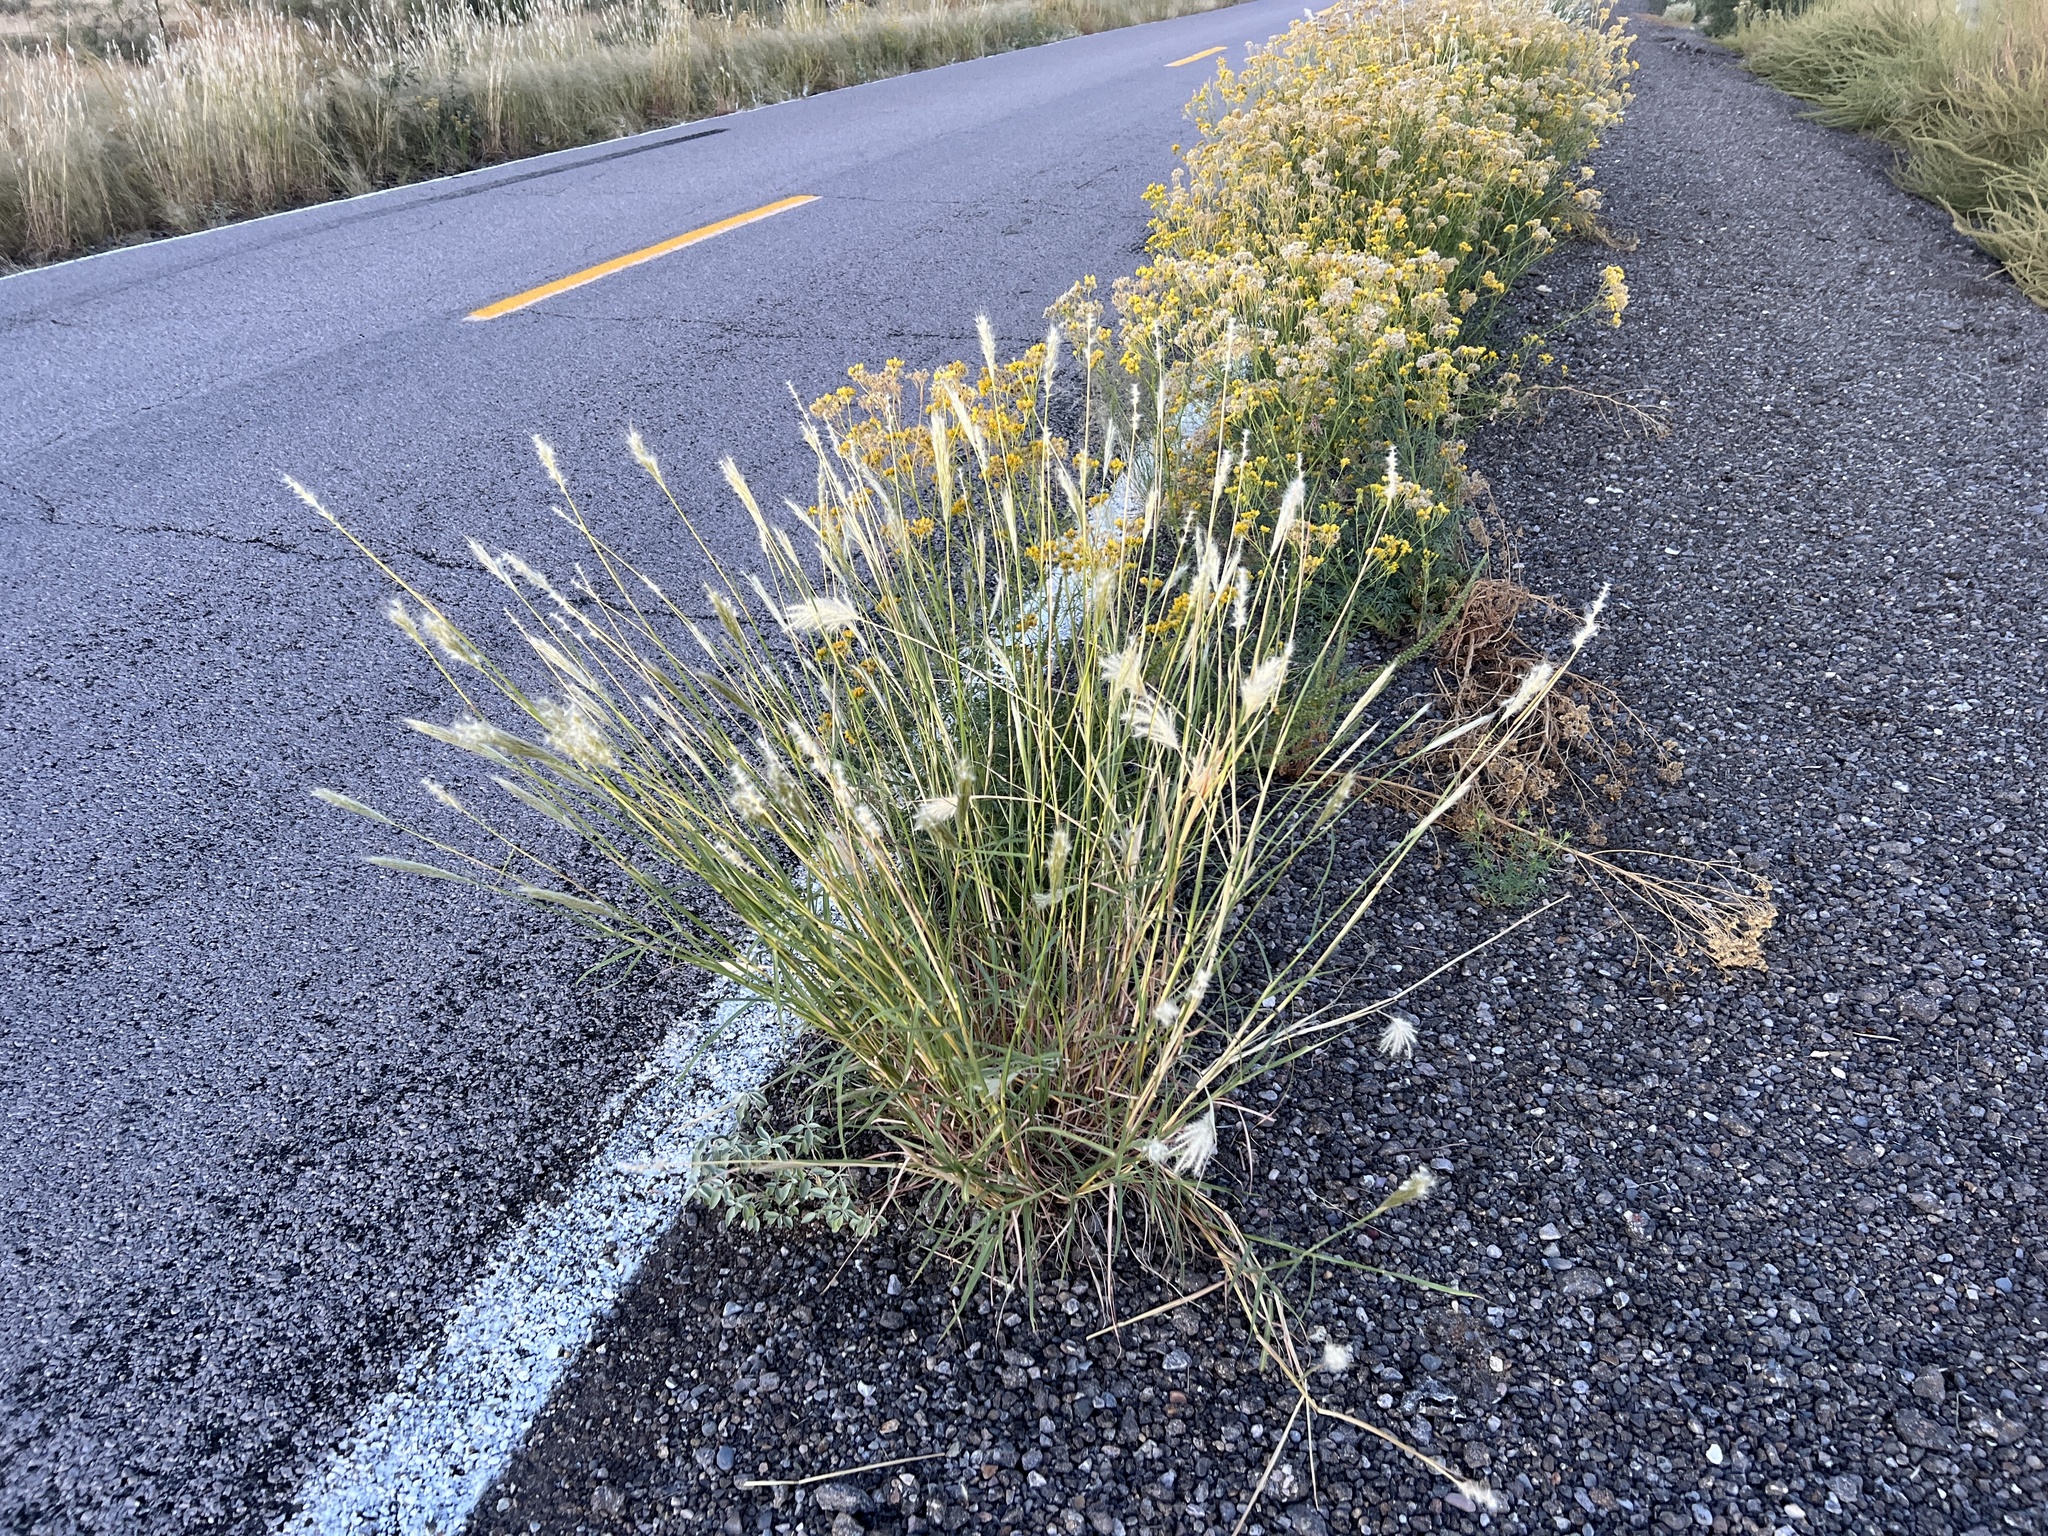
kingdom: Plantae
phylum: Tracheophyta
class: Liliopsida
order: Poales
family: Poaceae
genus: Bothriochloa
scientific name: Bothriochloa barbinodis
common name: Cane bluestem
